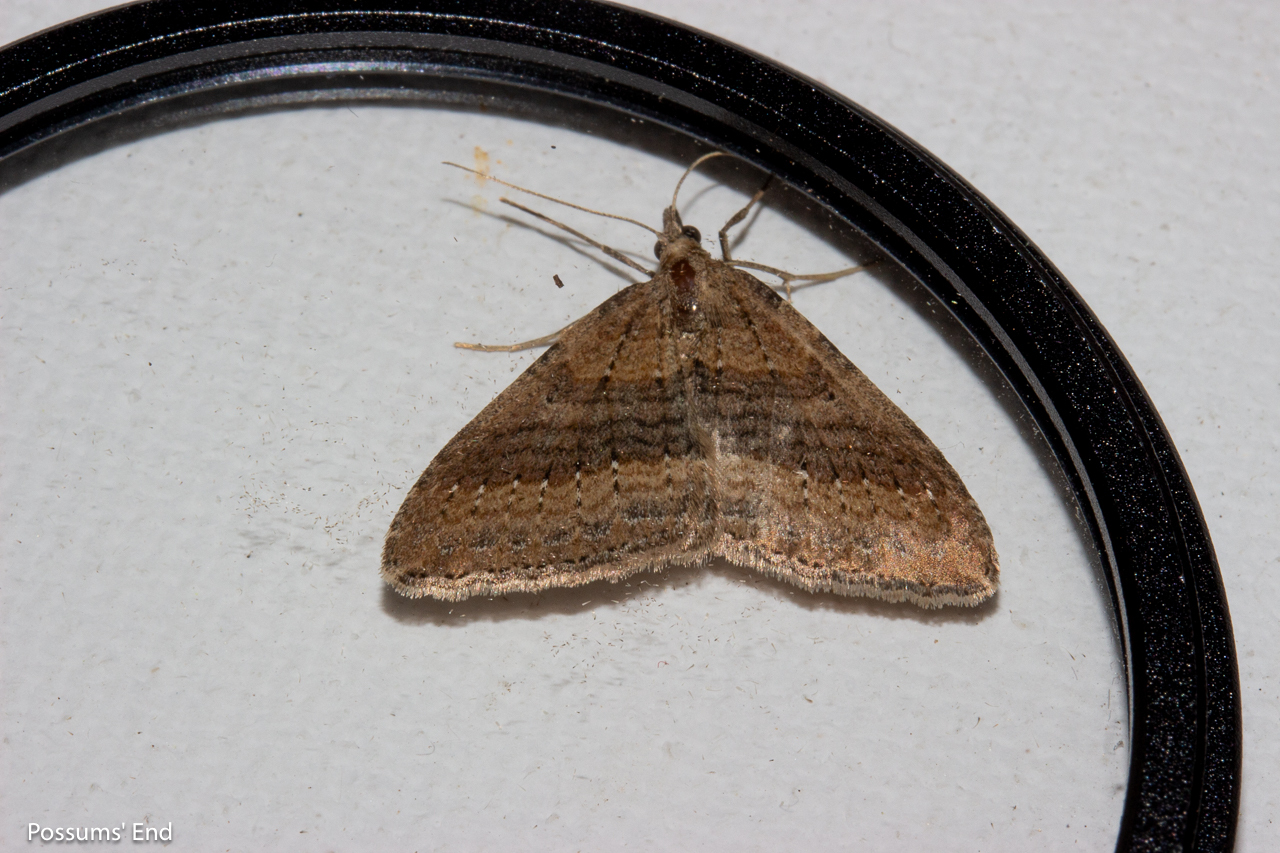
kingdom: Animalia
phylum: Arthropoda
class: Insecta
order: Lepidoptera
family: Geometridae
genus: Epyaxa
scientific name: Epyaxa venipunctata
